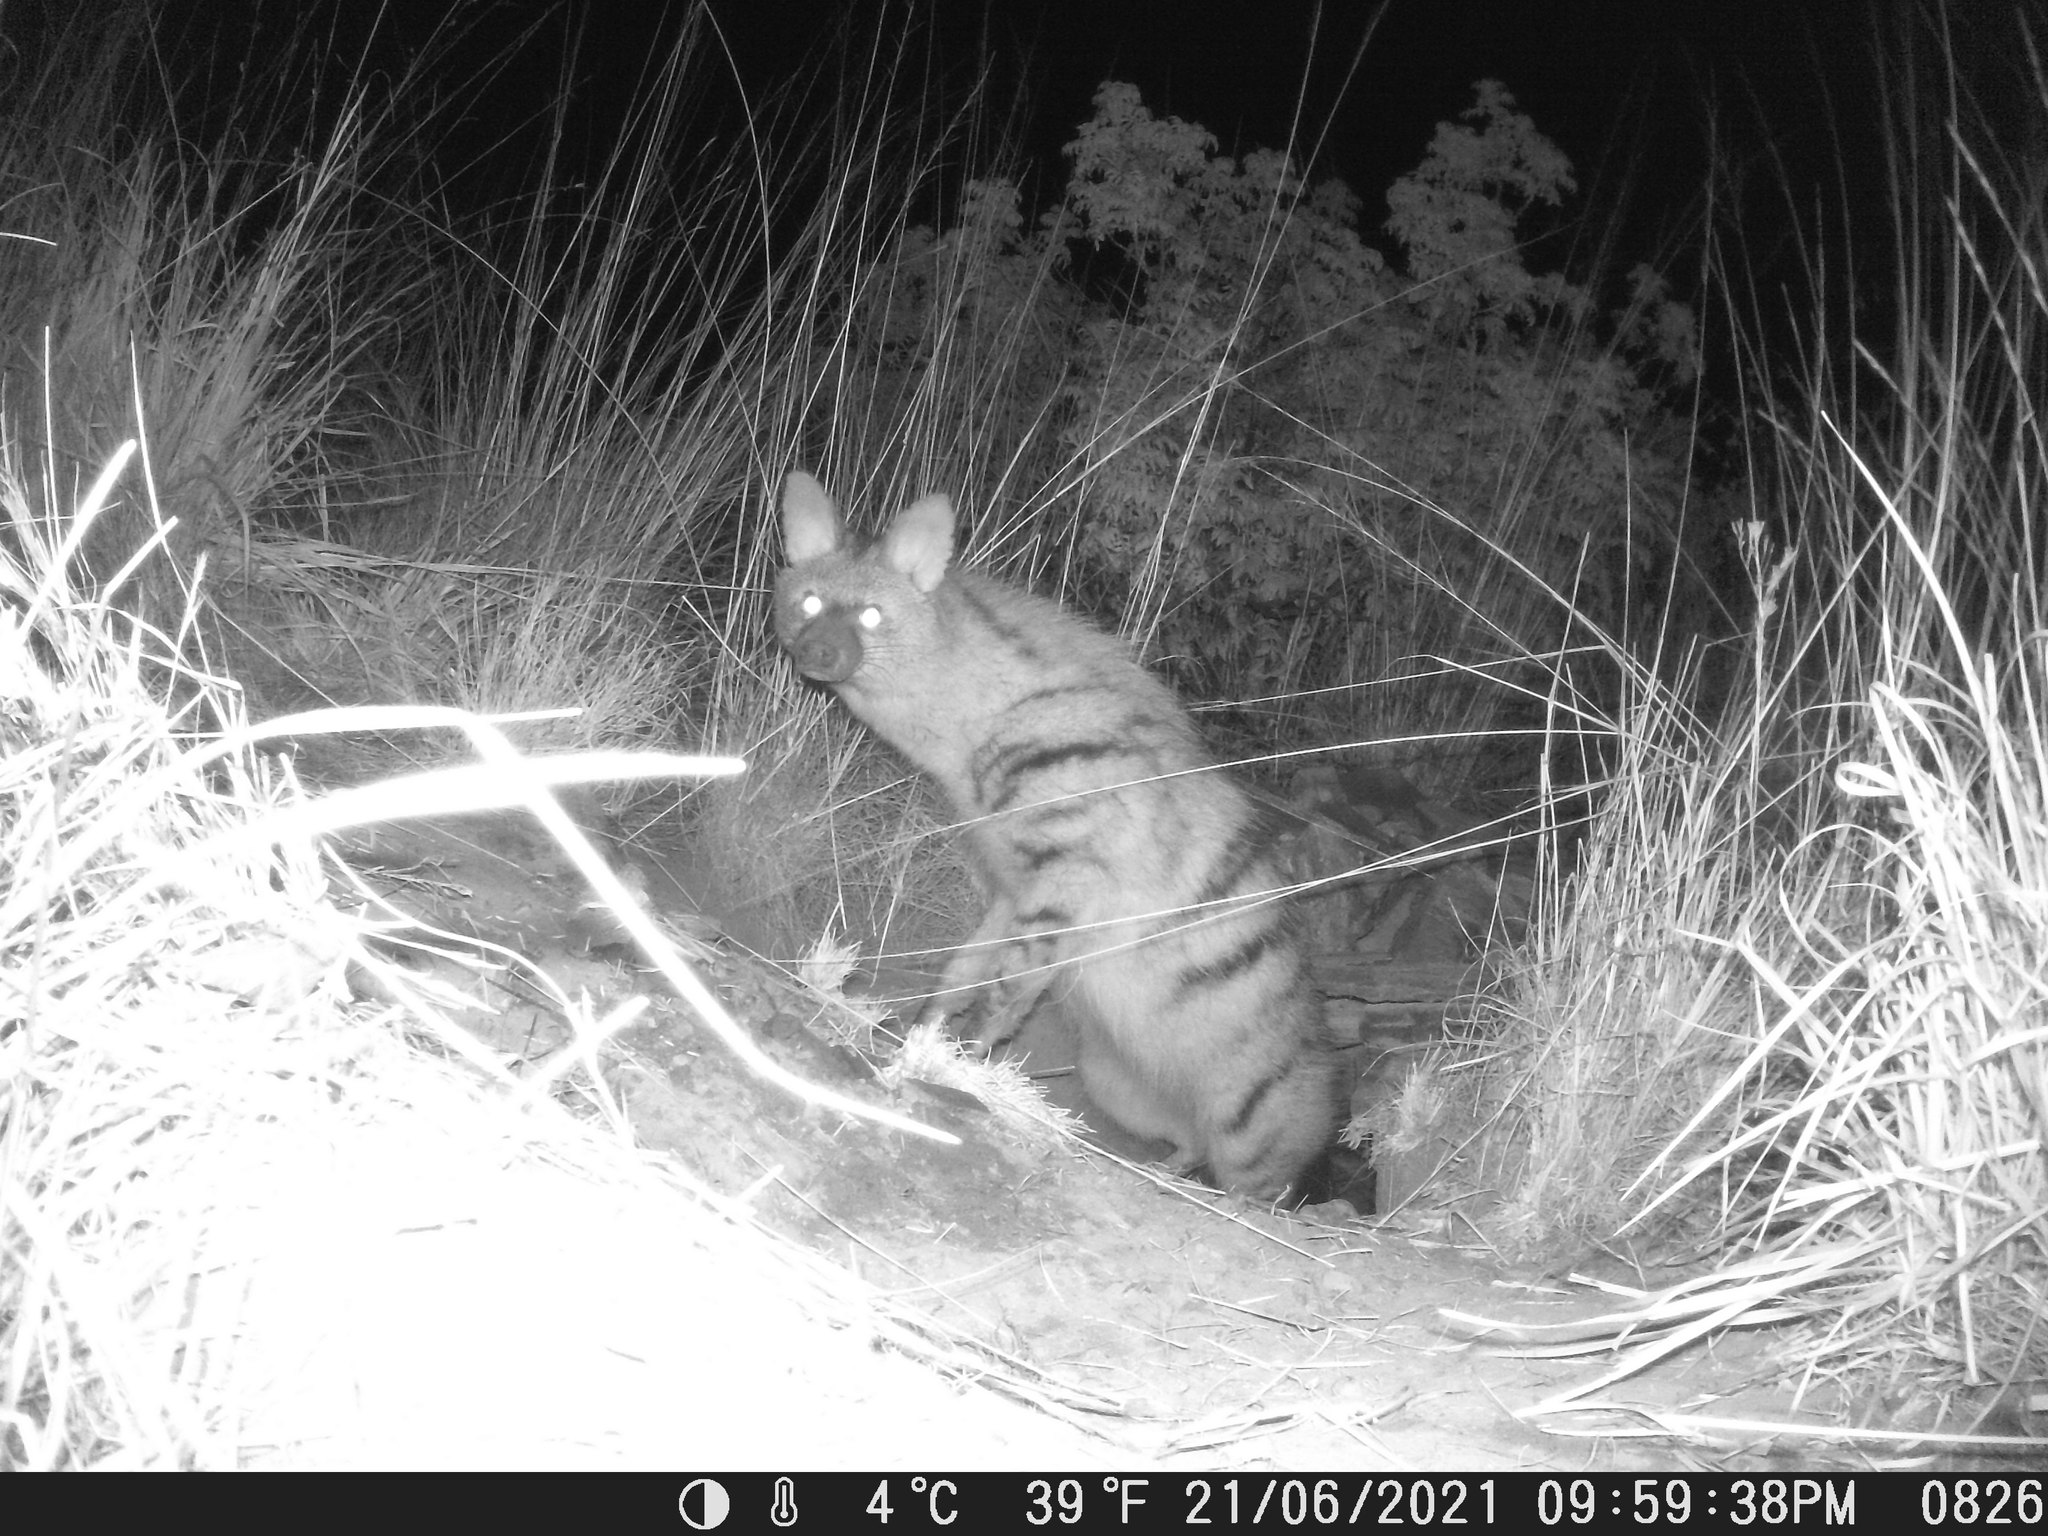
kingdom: Animalia
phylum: Chordata
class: Mammalia
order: Carnivora
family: Hyaenidae
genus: Proteles
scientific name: Proteles cristata
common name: Aardwolf
